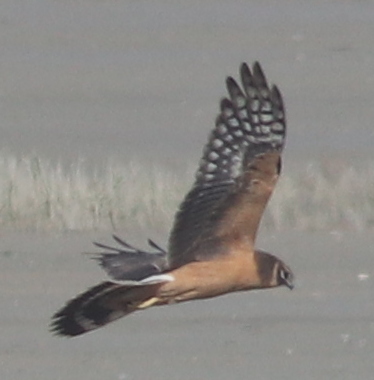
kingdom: Animalia
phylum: Chordata
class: Aves
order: Accipitriformes
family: Accipitridae
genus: Circus
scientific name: Circus macrourus
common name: Pallid harrier
